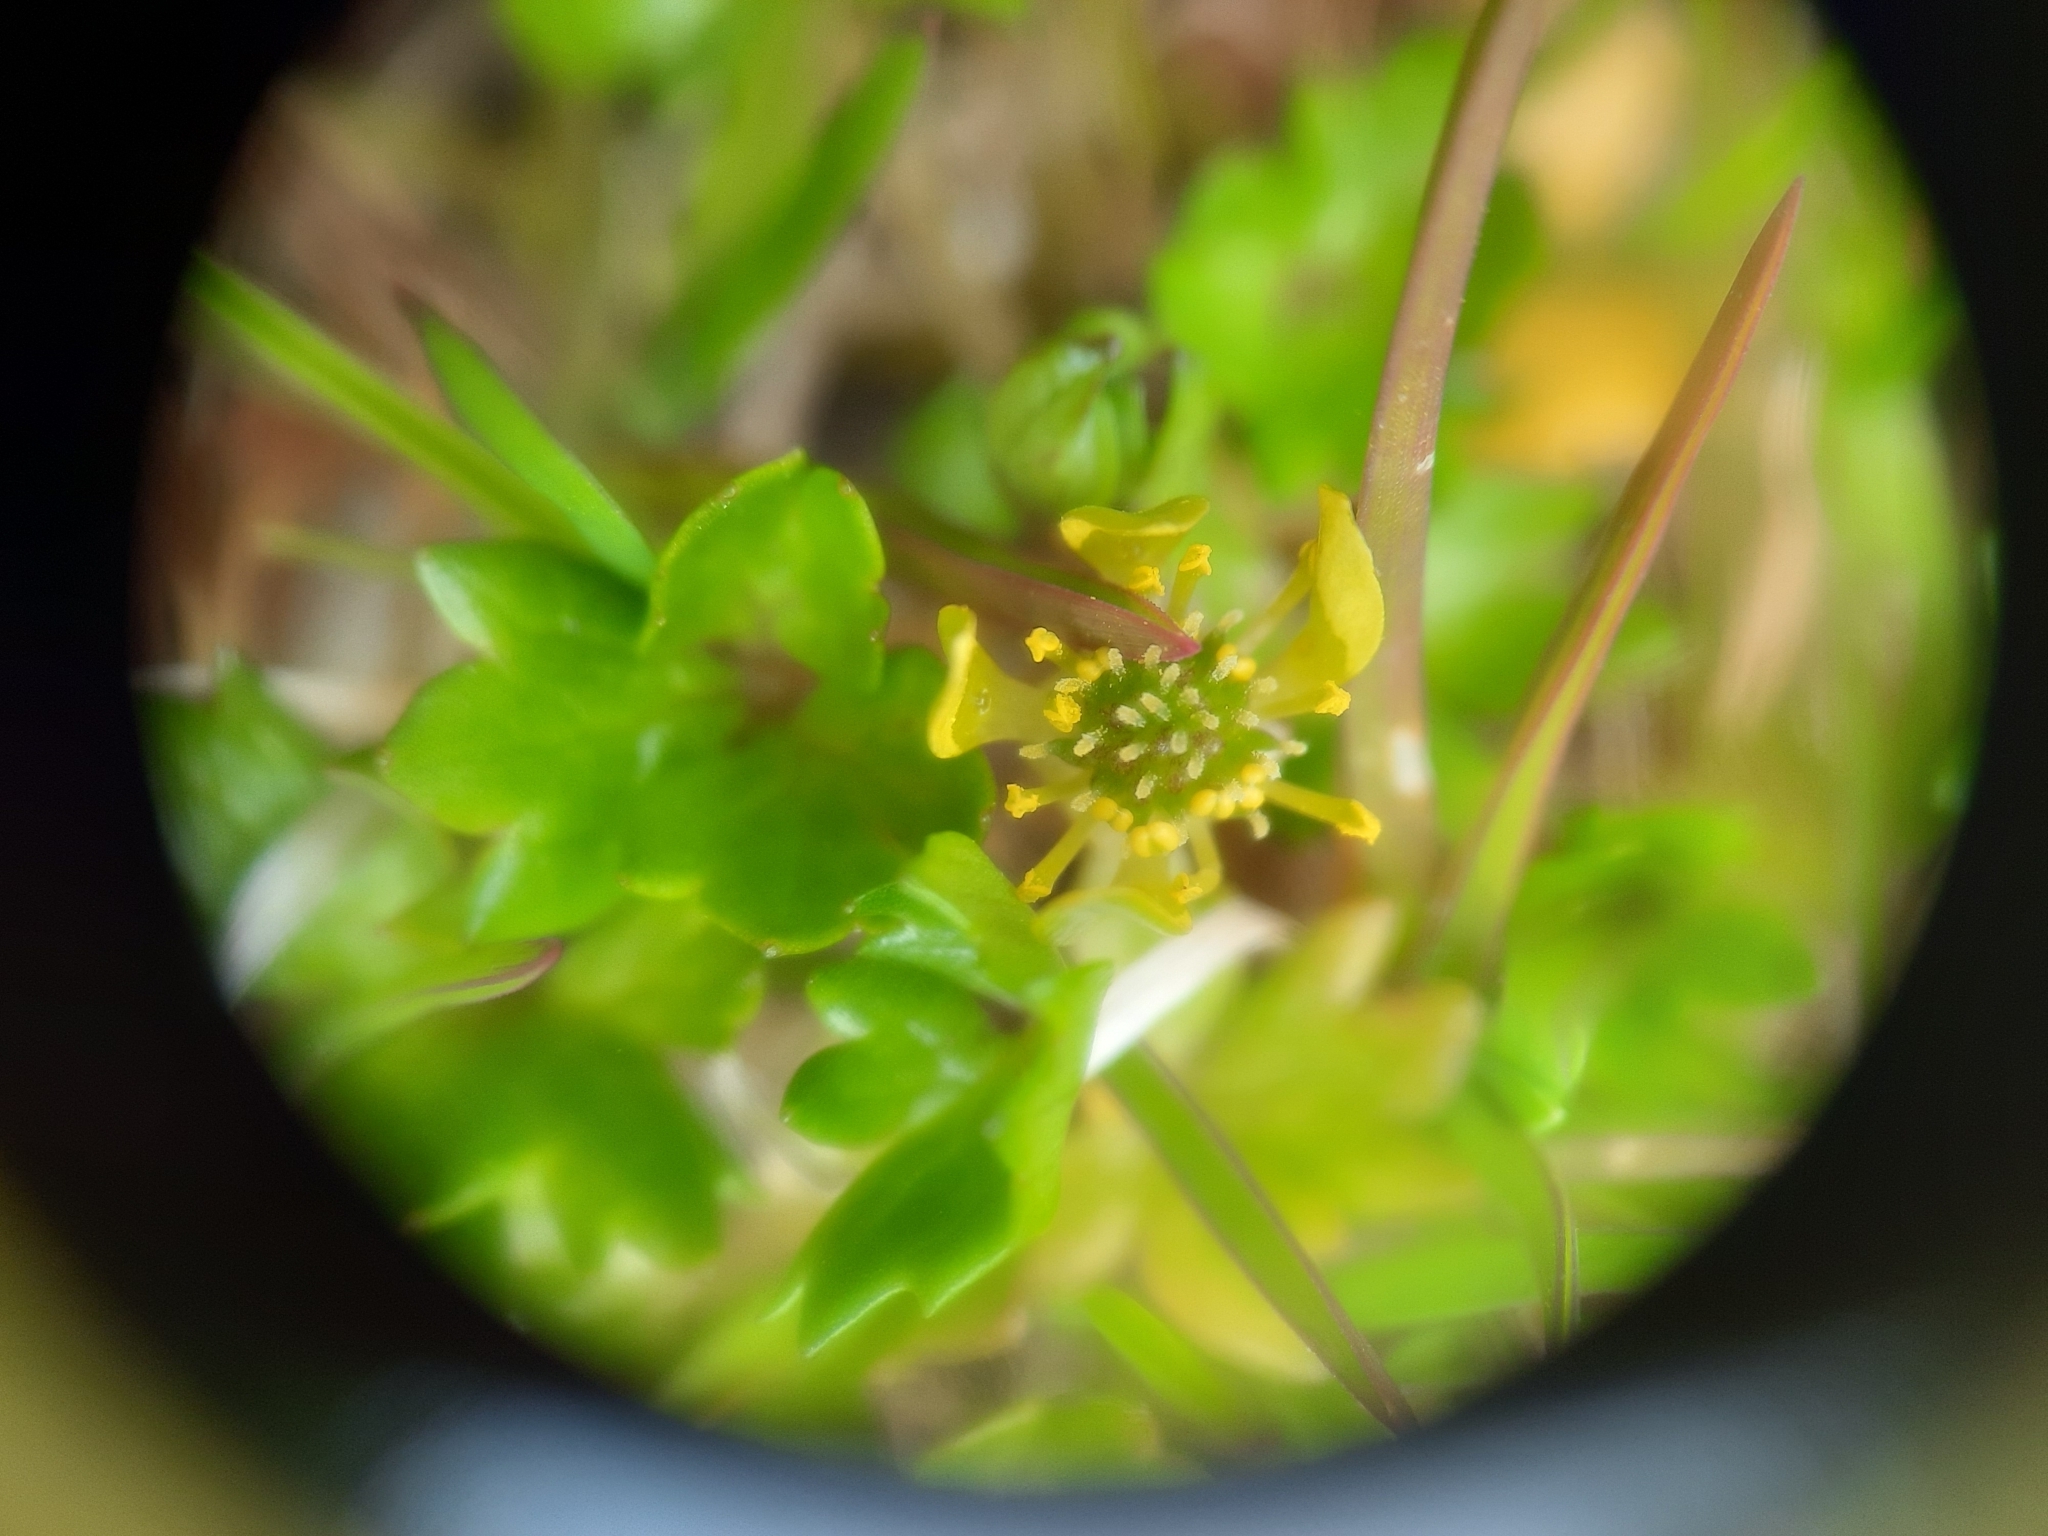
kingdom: Plantae
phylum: Tracheophyta
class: Magnoliopsida
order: Ranunculales
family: Ranunculaceae
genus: Ranunculus
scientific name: Ranunculus crassipes
